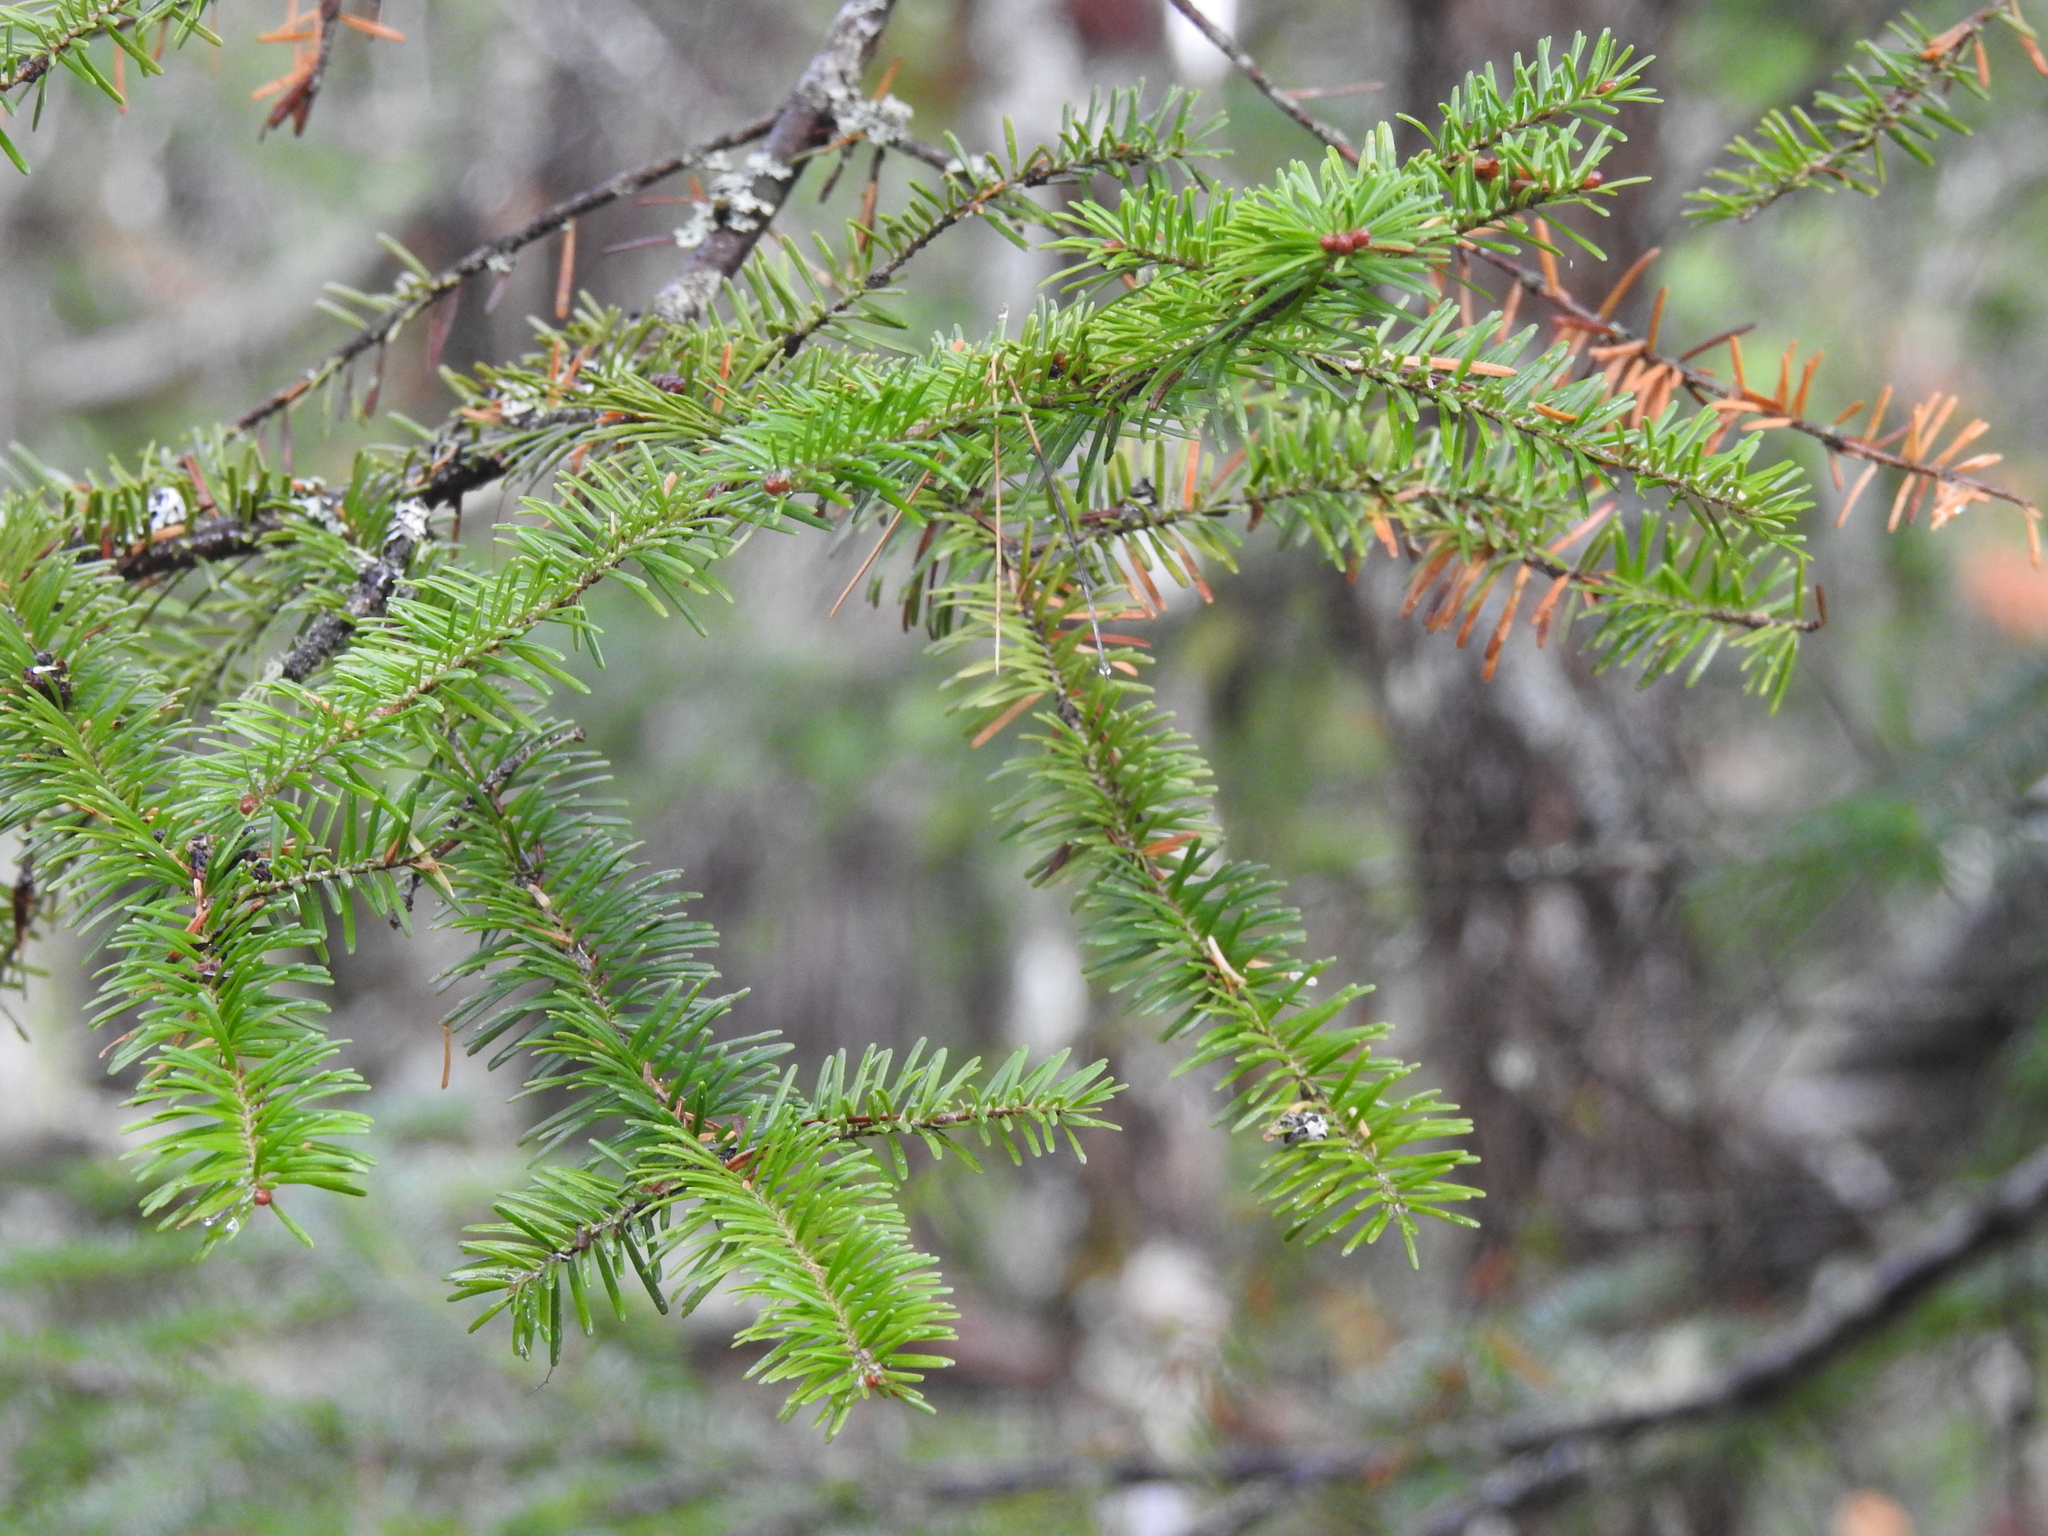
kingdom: Plantae
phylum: Tracheophyta
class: Pinopsida
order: Pinales
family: Pinaceae
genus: Abies
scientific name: Abies balsamea
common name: Balsam fir
